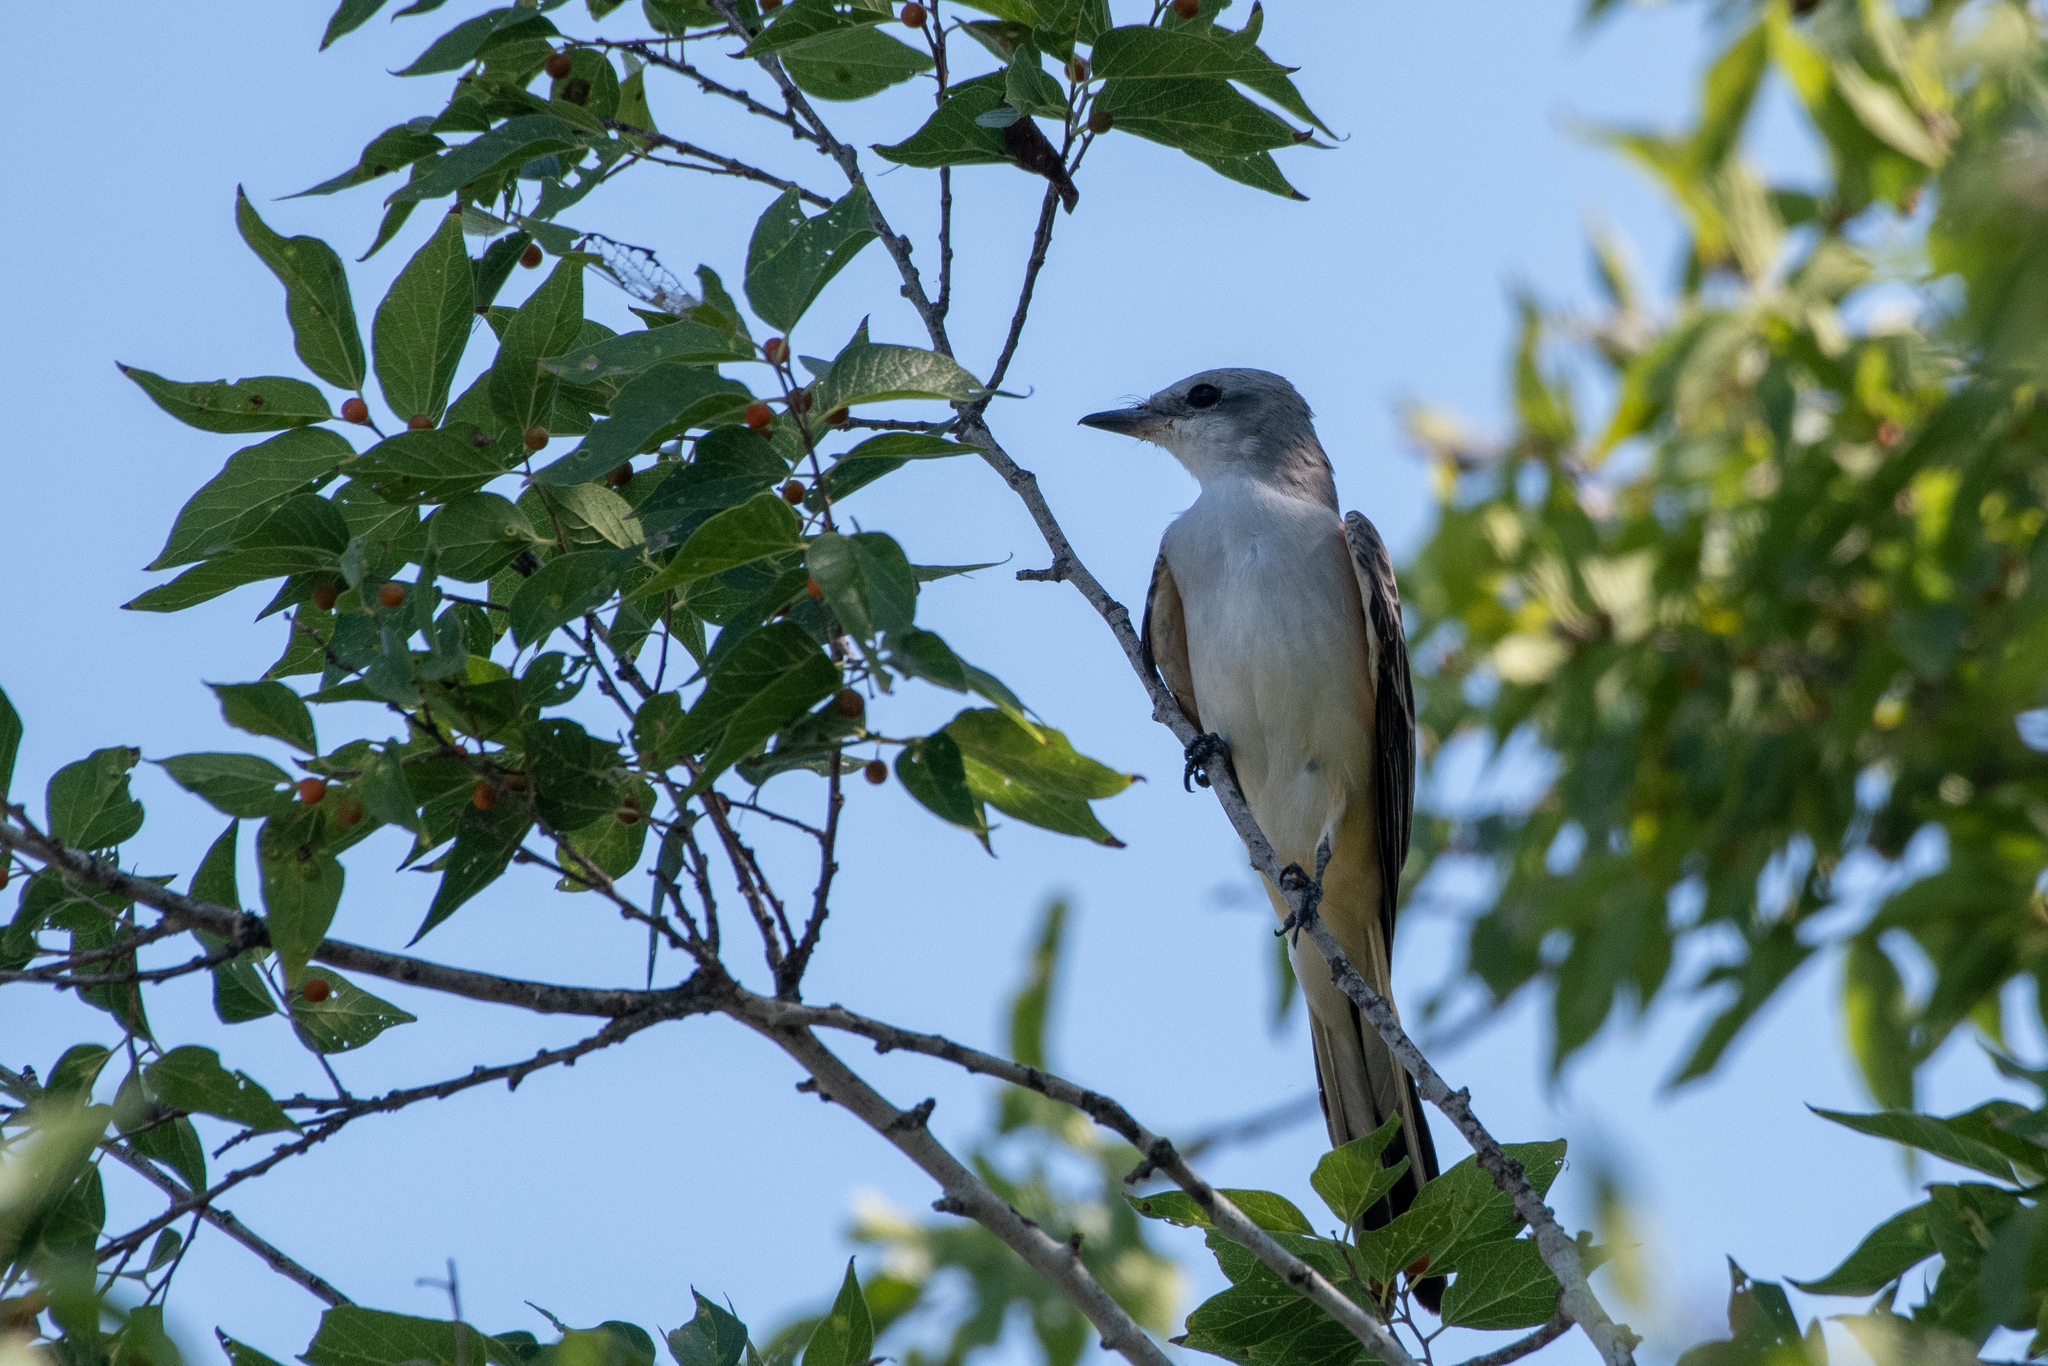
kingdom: Animalia
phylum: Chordata
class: Aves
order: Passeriformes
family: Tyrannidae
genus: Tyrannus
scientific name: Tyrannus forficatus
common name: Scissor-tailed flycatcher
